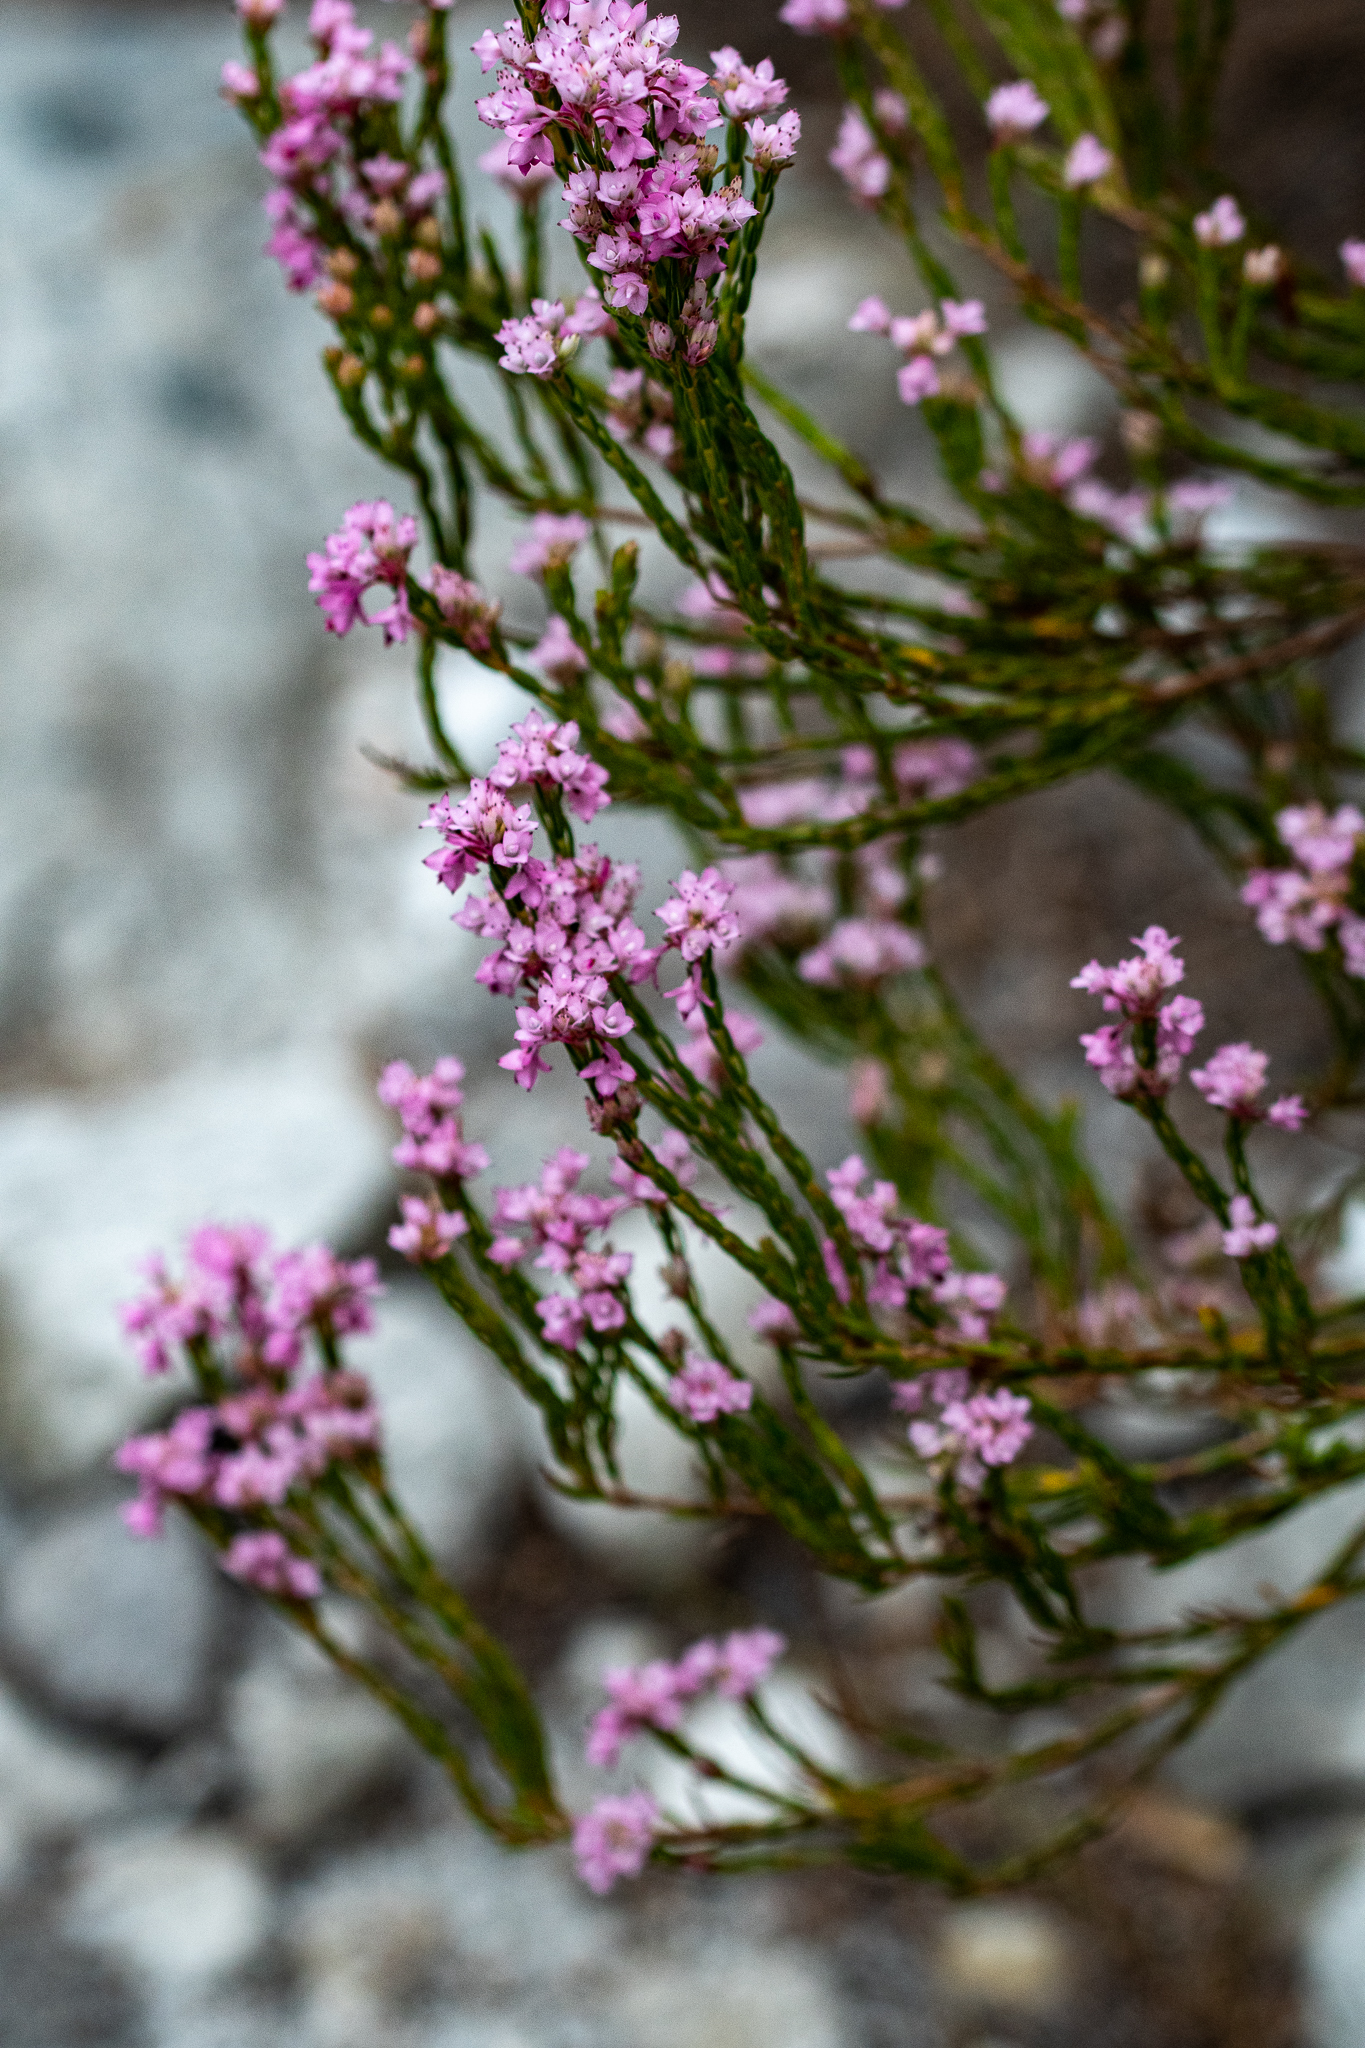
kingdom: Plantae
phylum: Tracheophyta
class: Magnoliopsida
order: Ericales
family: Ericaceae
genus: Erica
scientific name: Erica corifolia
